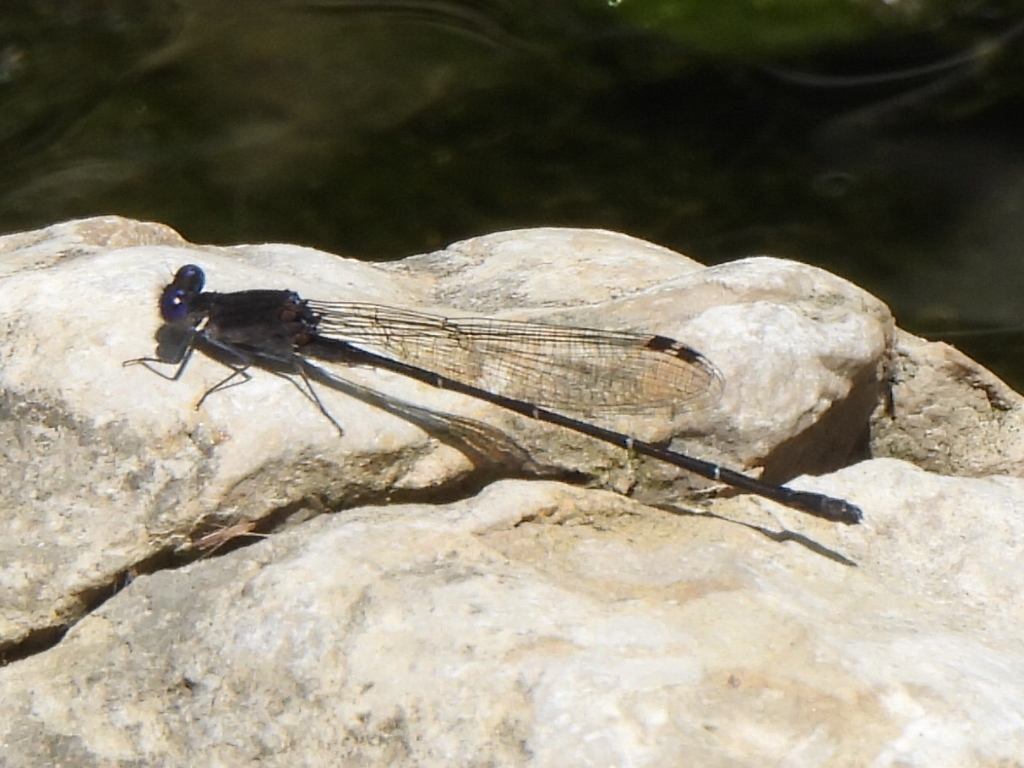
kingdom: Animalia
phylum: Arthropoda
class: Insecta
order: Odonata
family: Coenagrionidae
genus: Argia
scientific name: Argia translata
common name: Dusky dancer
